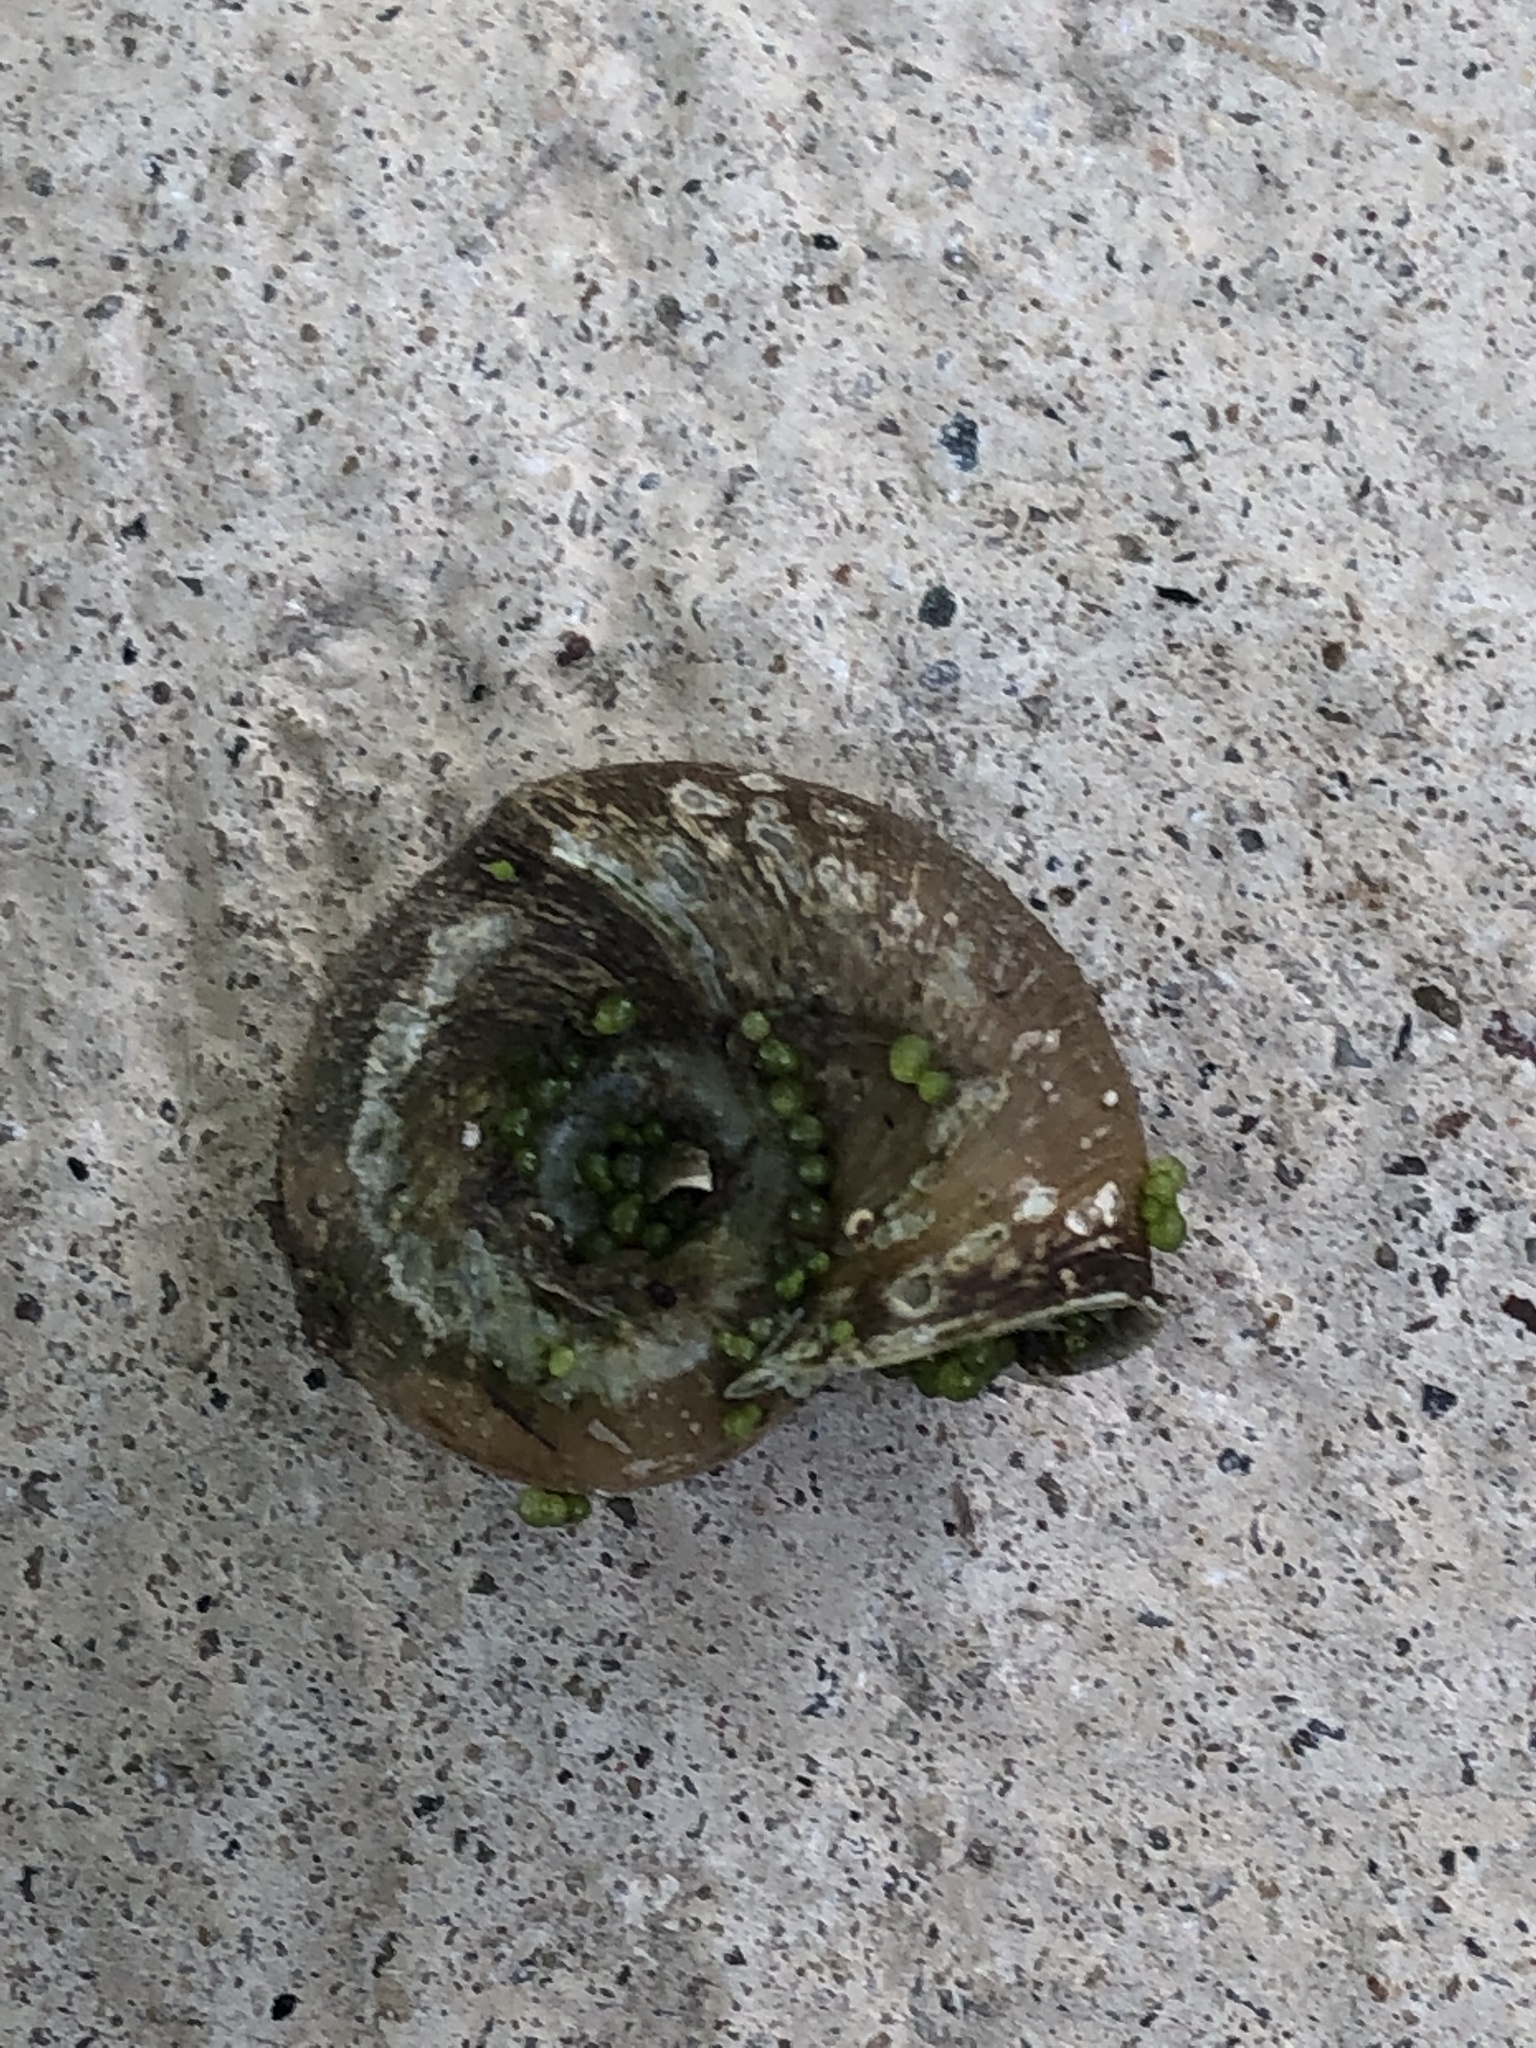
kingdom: Animalia
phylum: Mollusca
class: Gastropoda
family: Planorbidae
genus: Planorbella
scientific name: Planorbella trivolvis
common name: Marsh rams-horn
